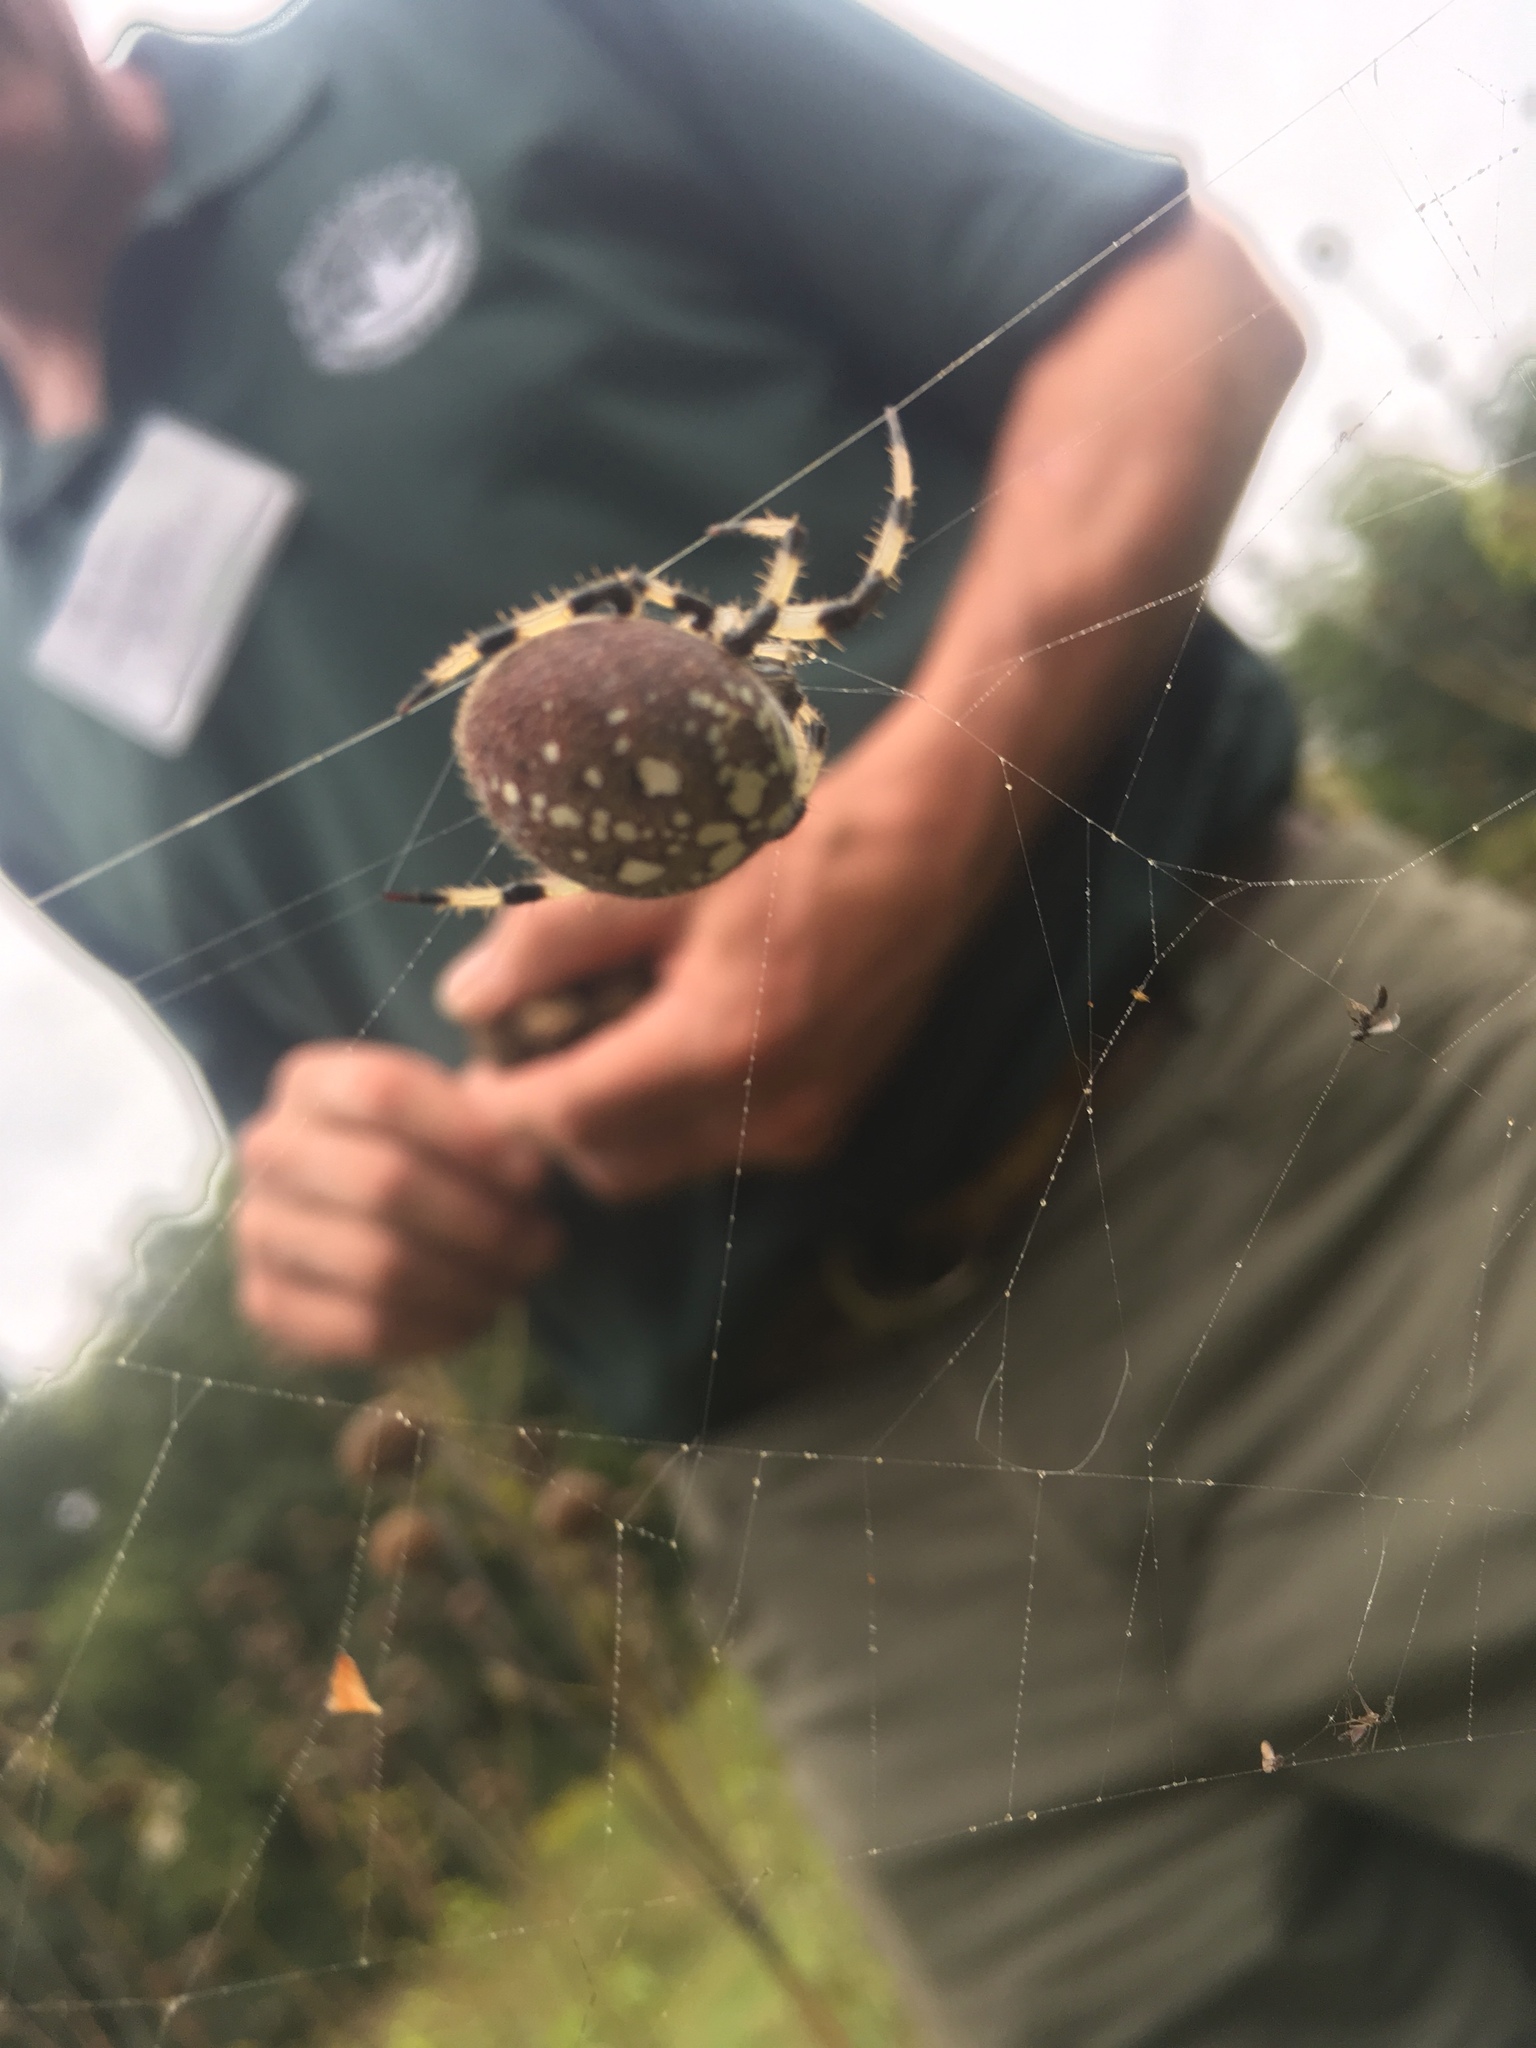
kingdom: Animalia
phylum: Arthropoda
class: Arachnida
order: Araneae
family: Araneidae
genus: Araneus
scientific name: Araneus trifolium
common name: Shamrock orbweaver
